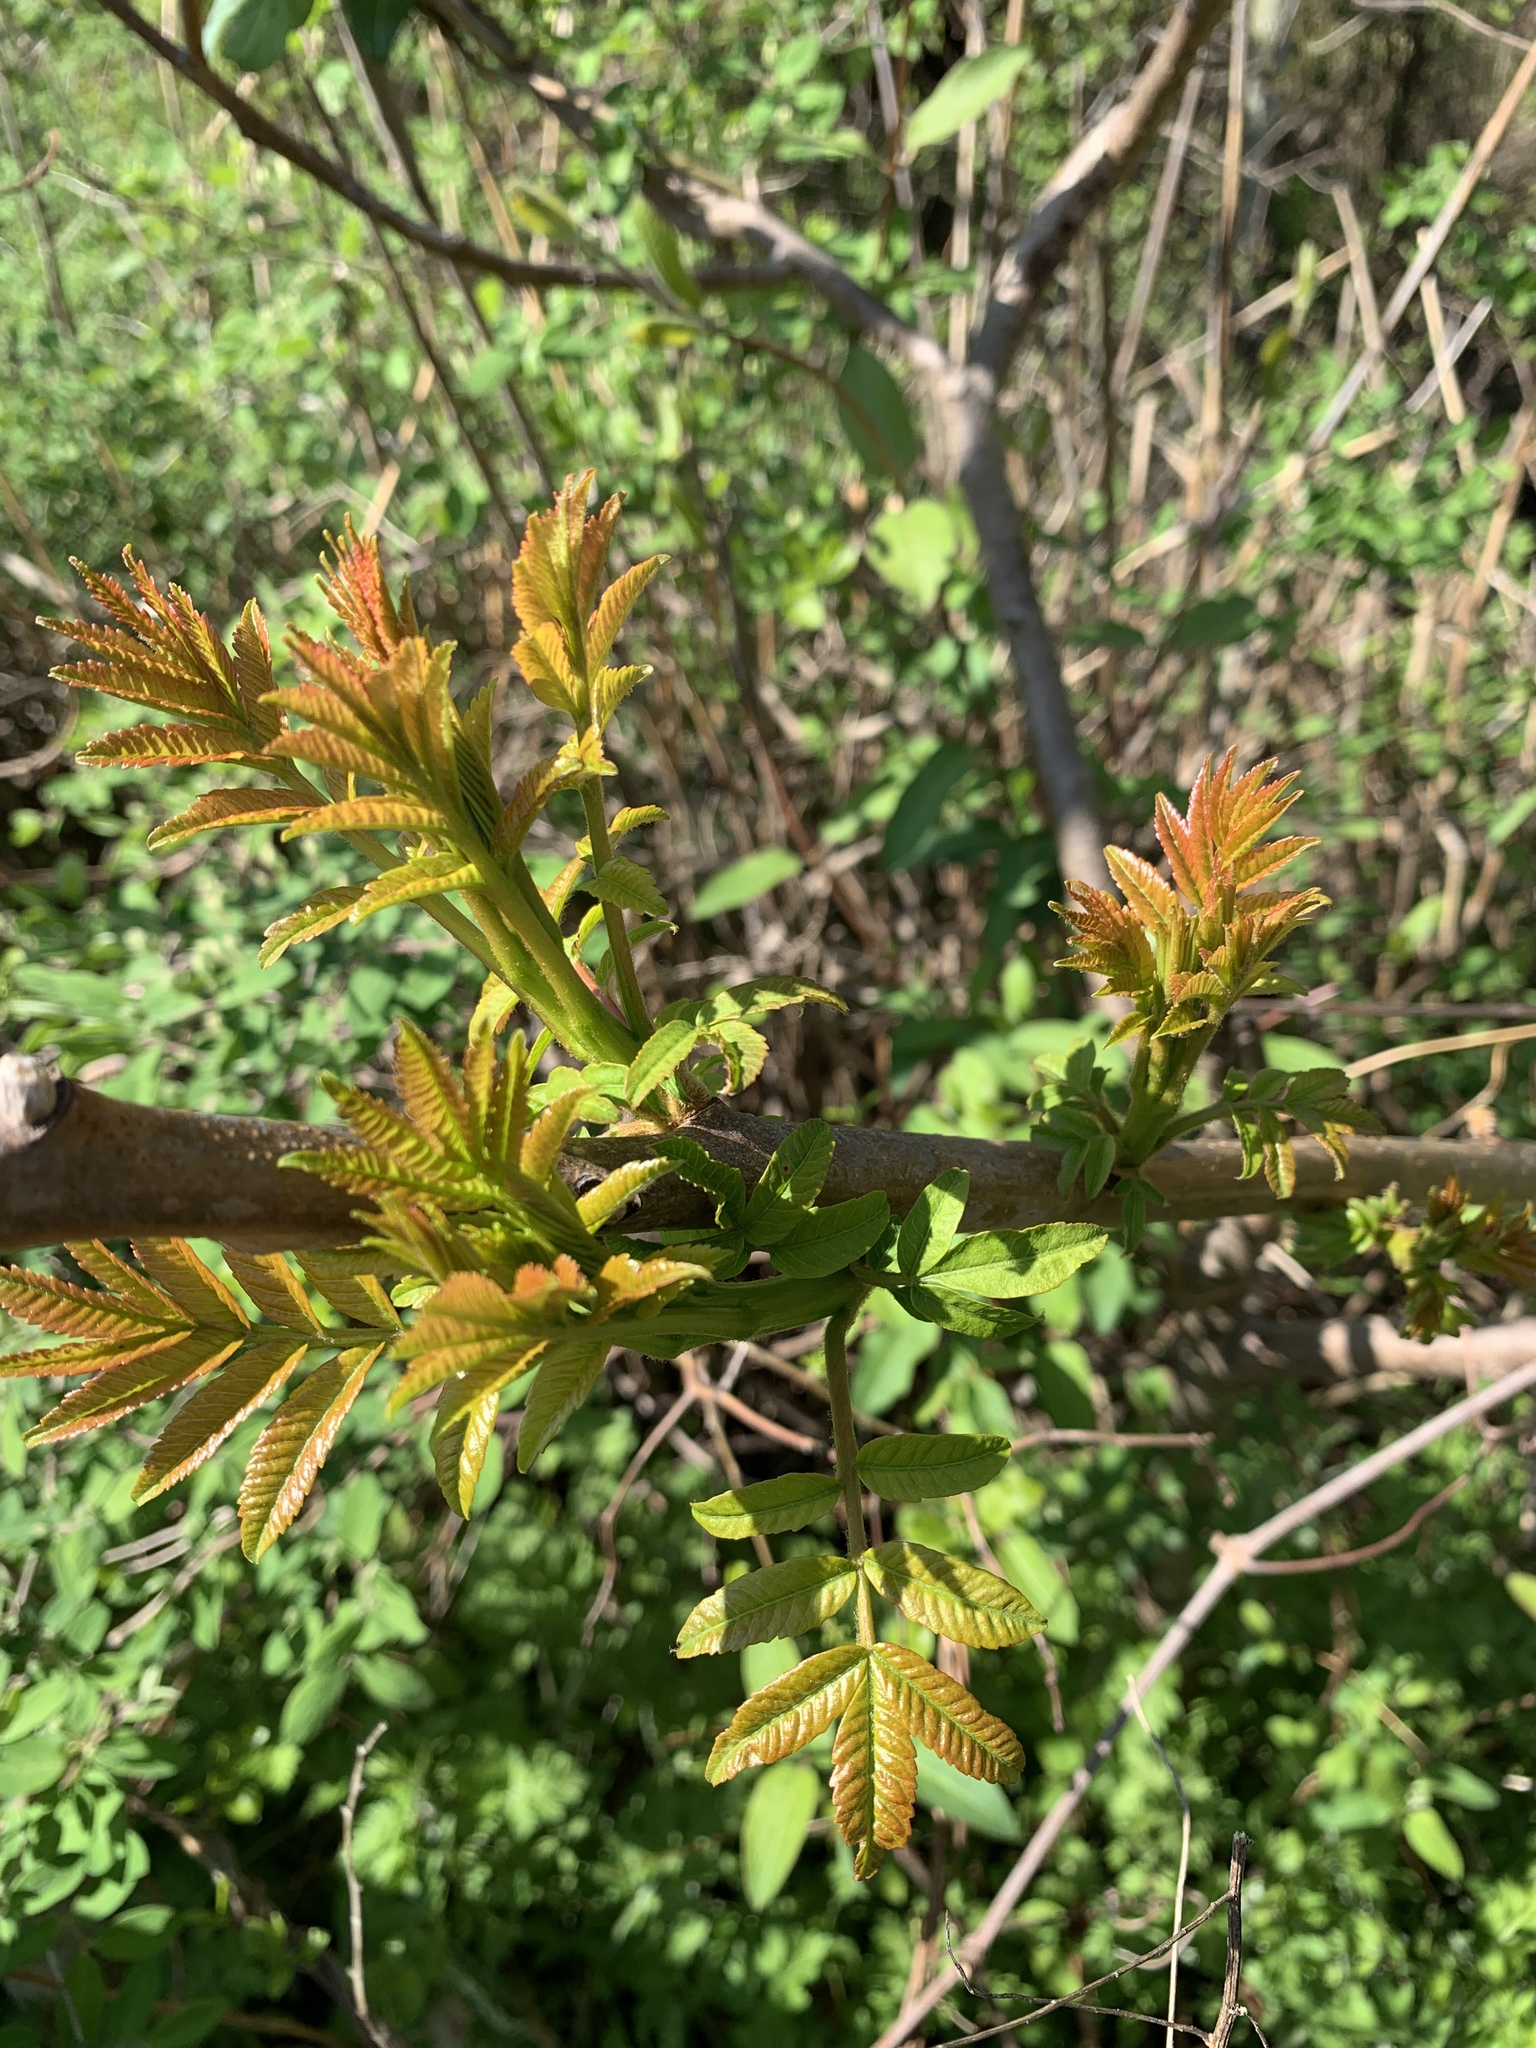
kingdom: Plantae
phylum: Tracheophyta
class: Magnoliopsida
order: Sapindales
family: Anacardiaceae
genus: Rhus
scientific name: Rhus glabra
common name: Scarlet sumac
